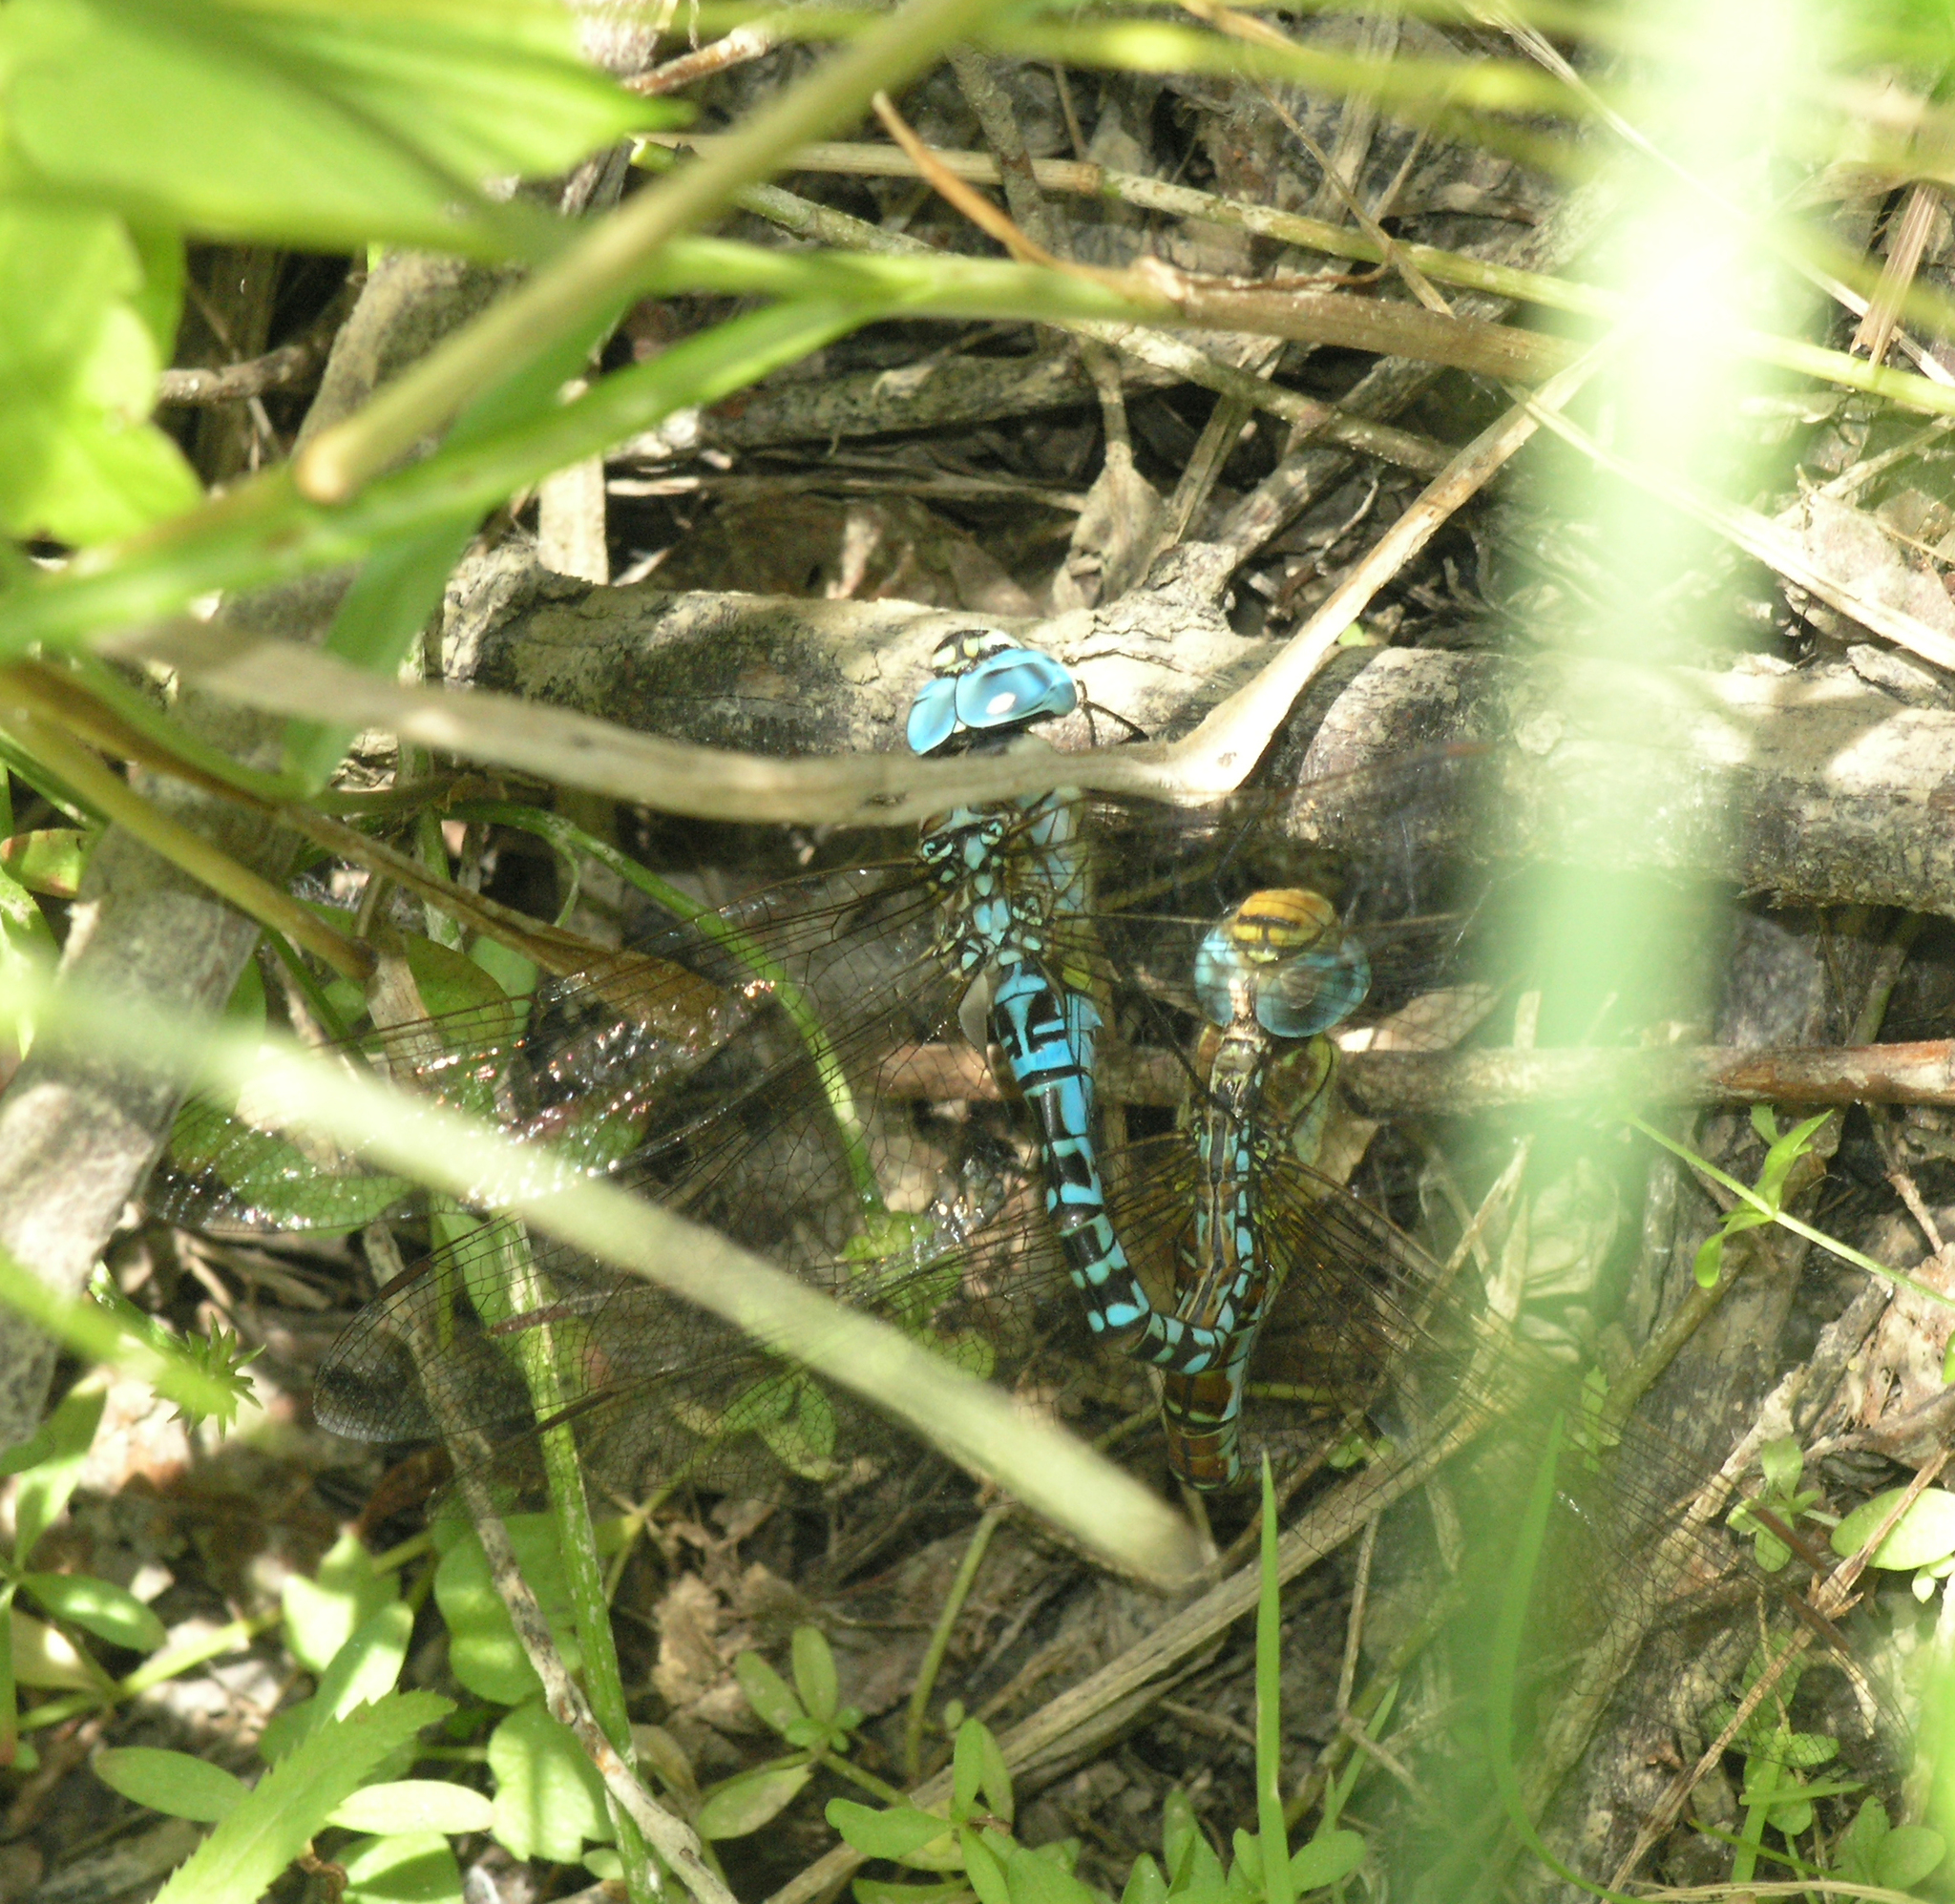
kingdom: Animalia
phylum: Arthropoda
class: Insecta
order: Odonata
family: Aeshnidae
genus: Aeshna
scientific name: Aeshna affinis
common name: Southern migrant hawker
